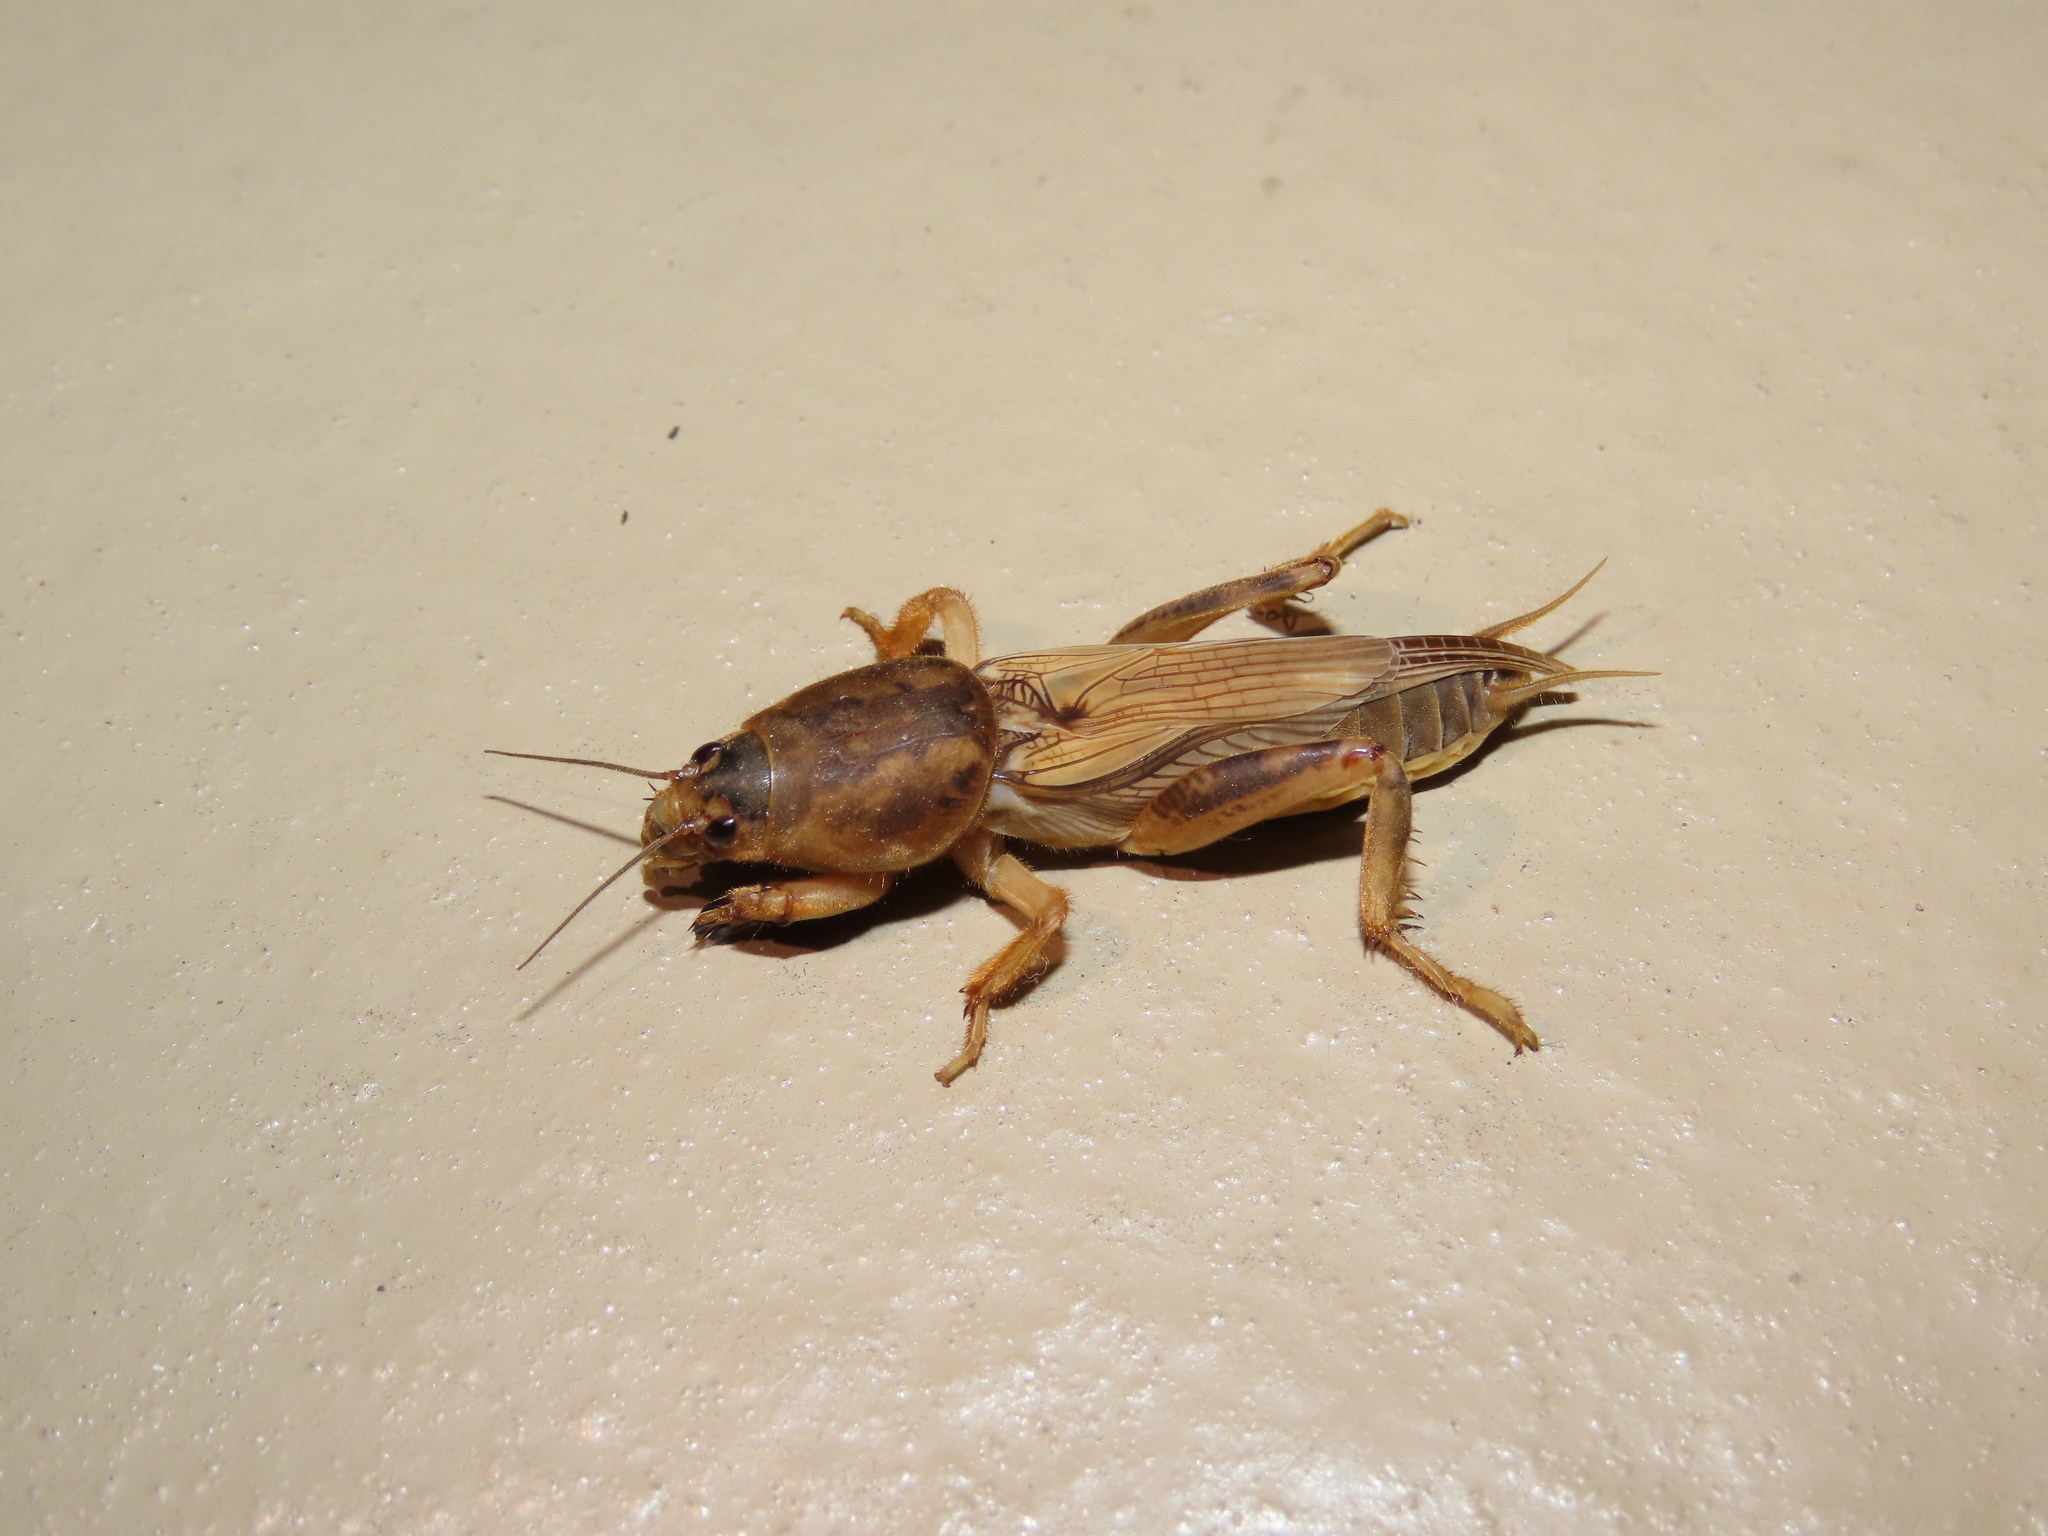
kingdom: Animalia
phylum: Arthropoda
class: Insecta
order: Orthoptera
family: Gryllotalpidae
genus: Neoscapteriscus
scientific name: Neoscapteriscus vicinus
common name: Tawny mole cricket
